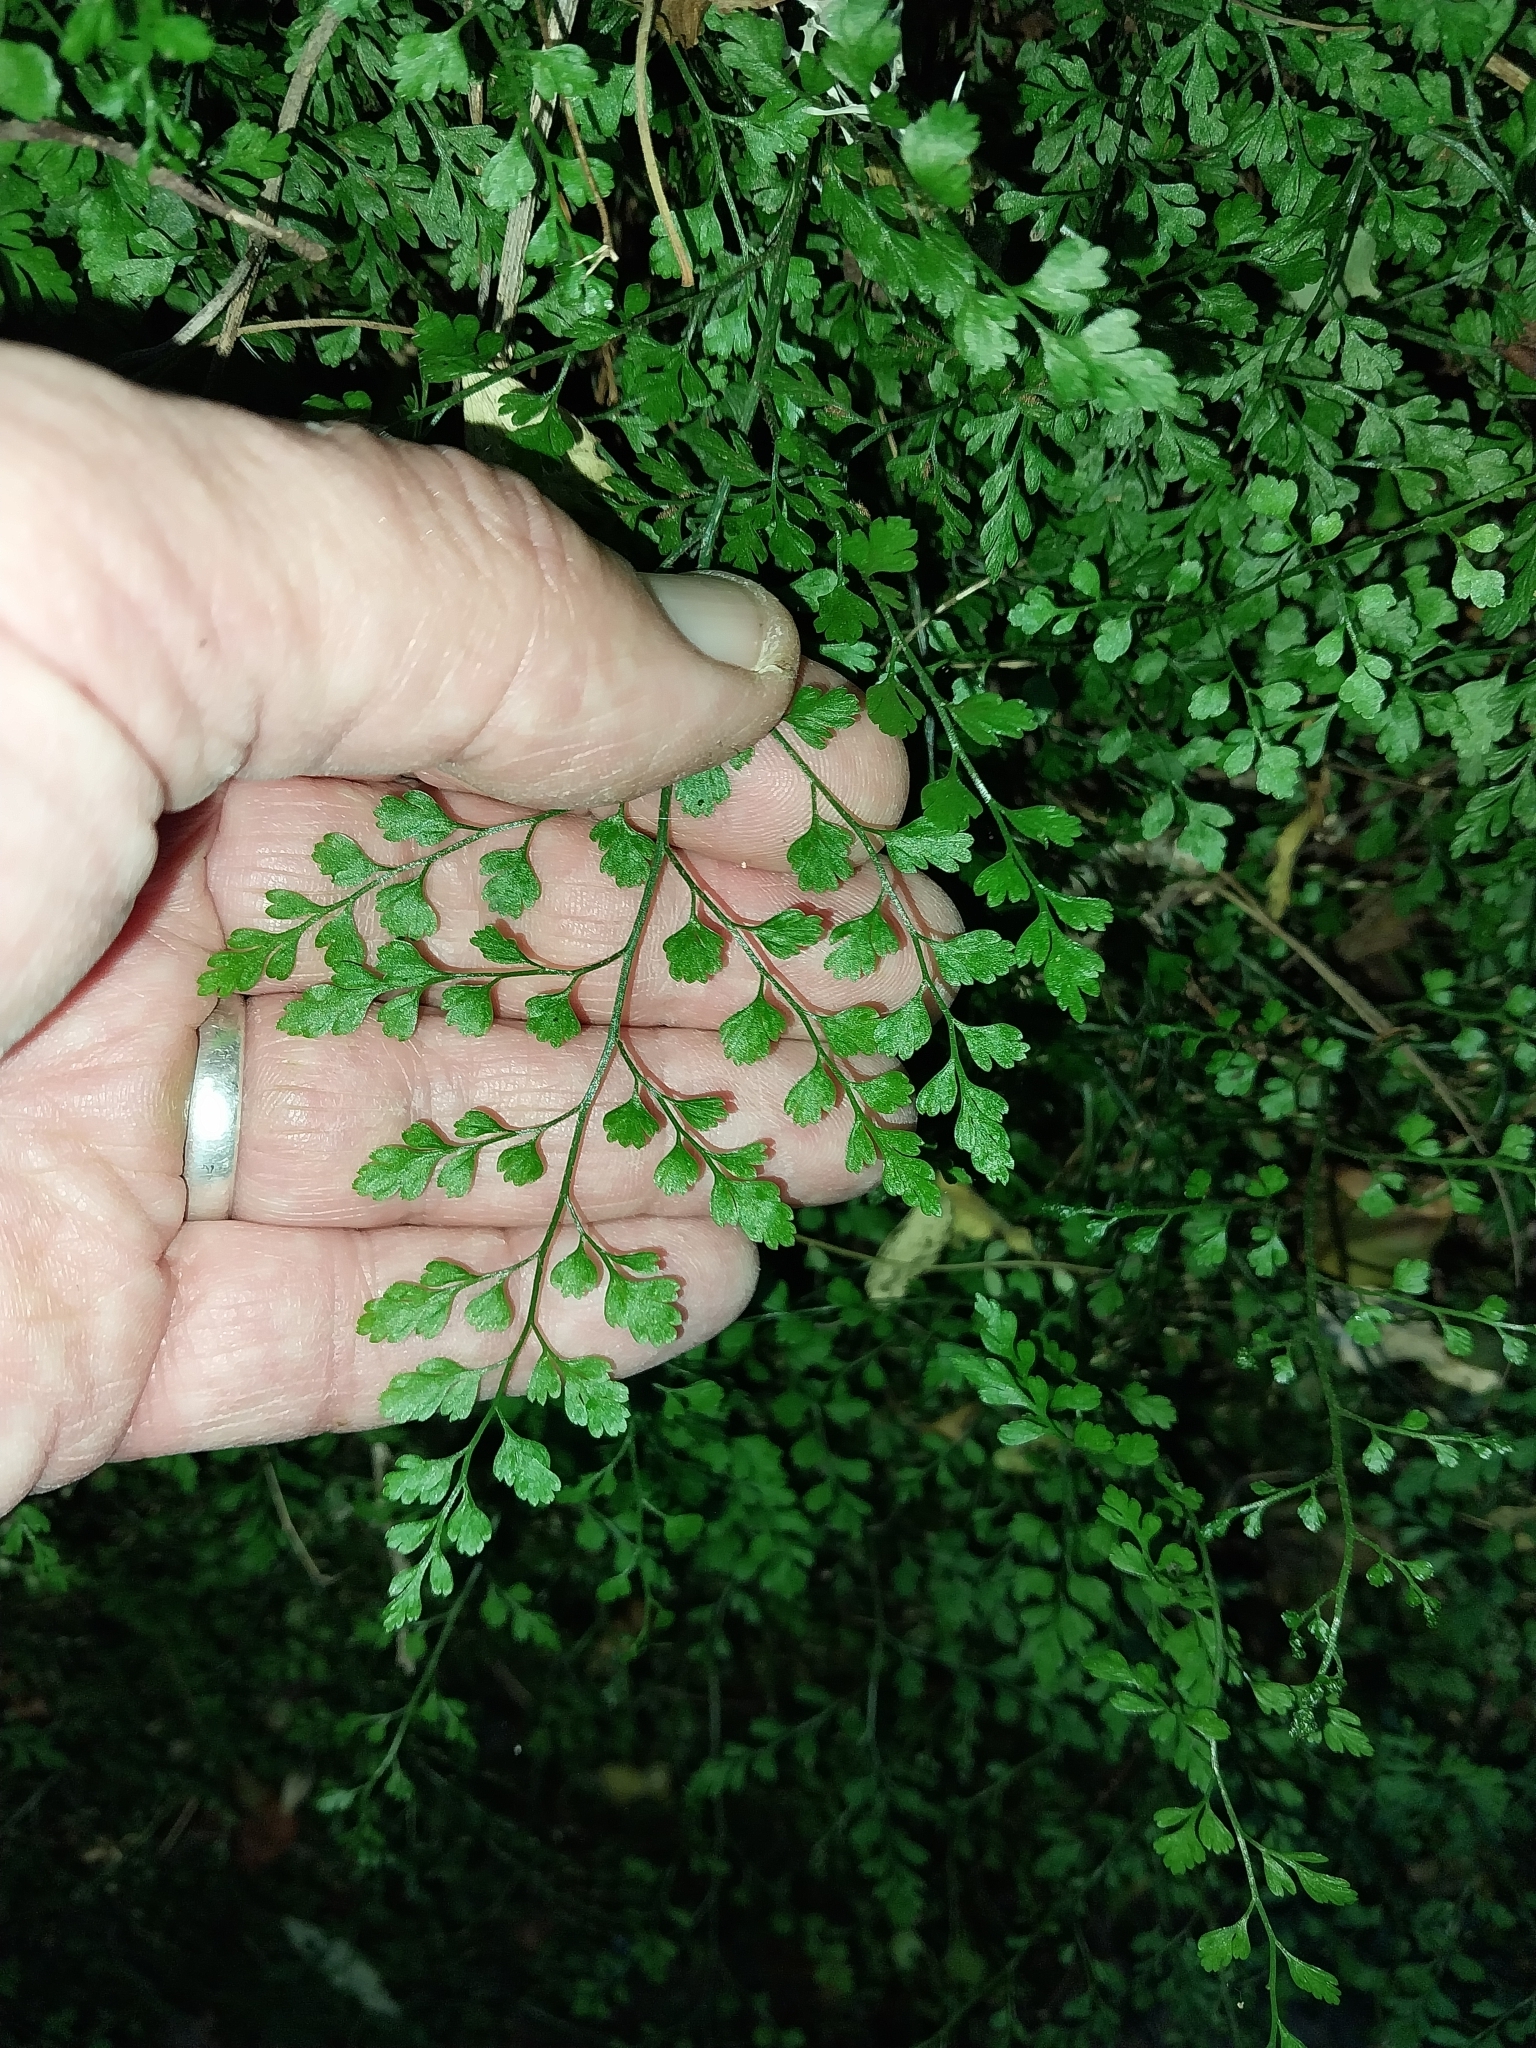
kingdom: Plantae
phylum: Tracheophyta
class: Polypodiopsida
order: Polypodiales
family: Aspleniaceae
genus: Asplenium
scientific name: Asplenium hookerianum
